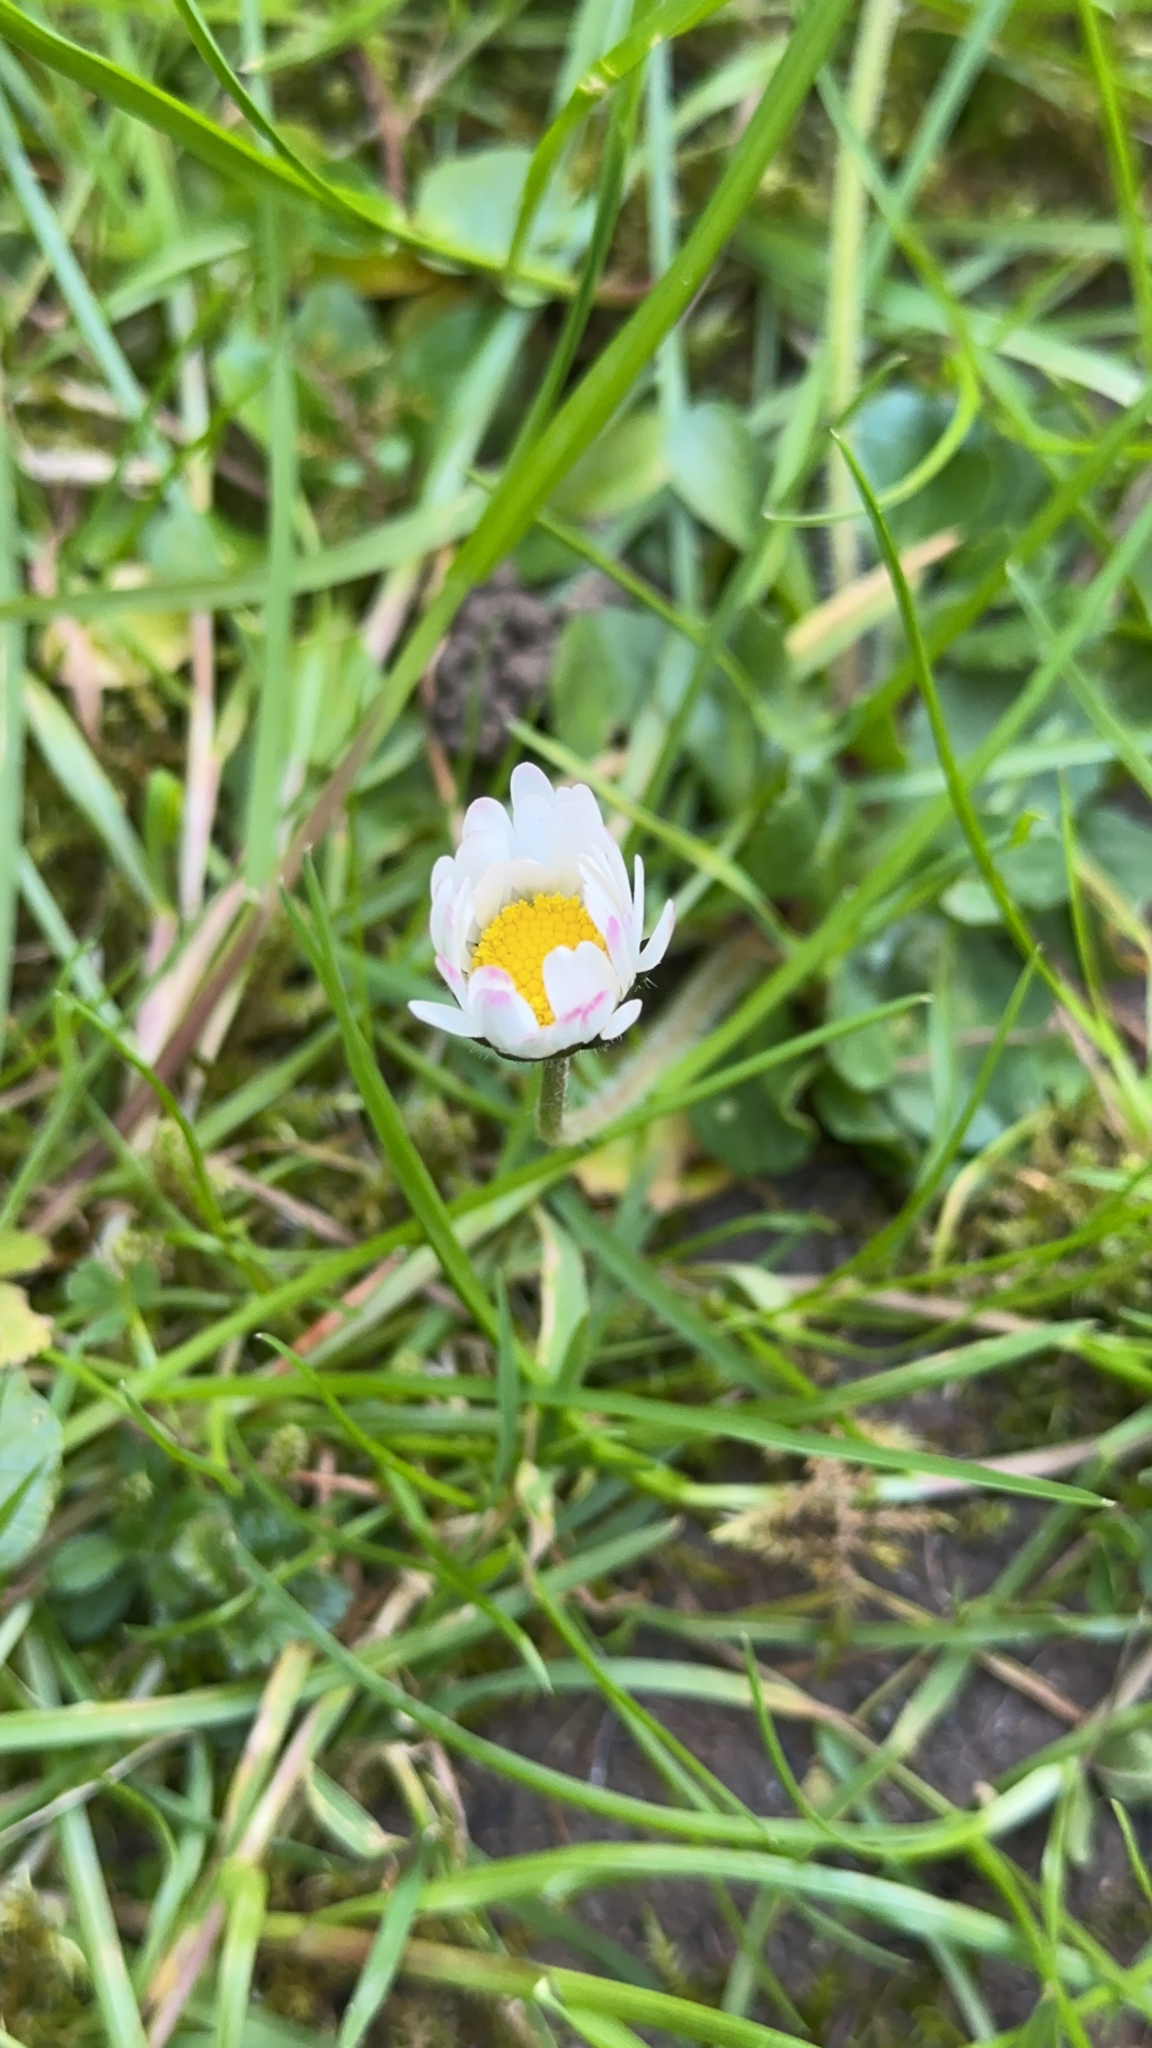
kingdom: Plantae
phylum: Tracheophyta
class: Magnoliopsida
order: Asterales
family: Asteraceae
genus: Bellis
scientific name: Bellis perennis
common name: Lawndaisy
